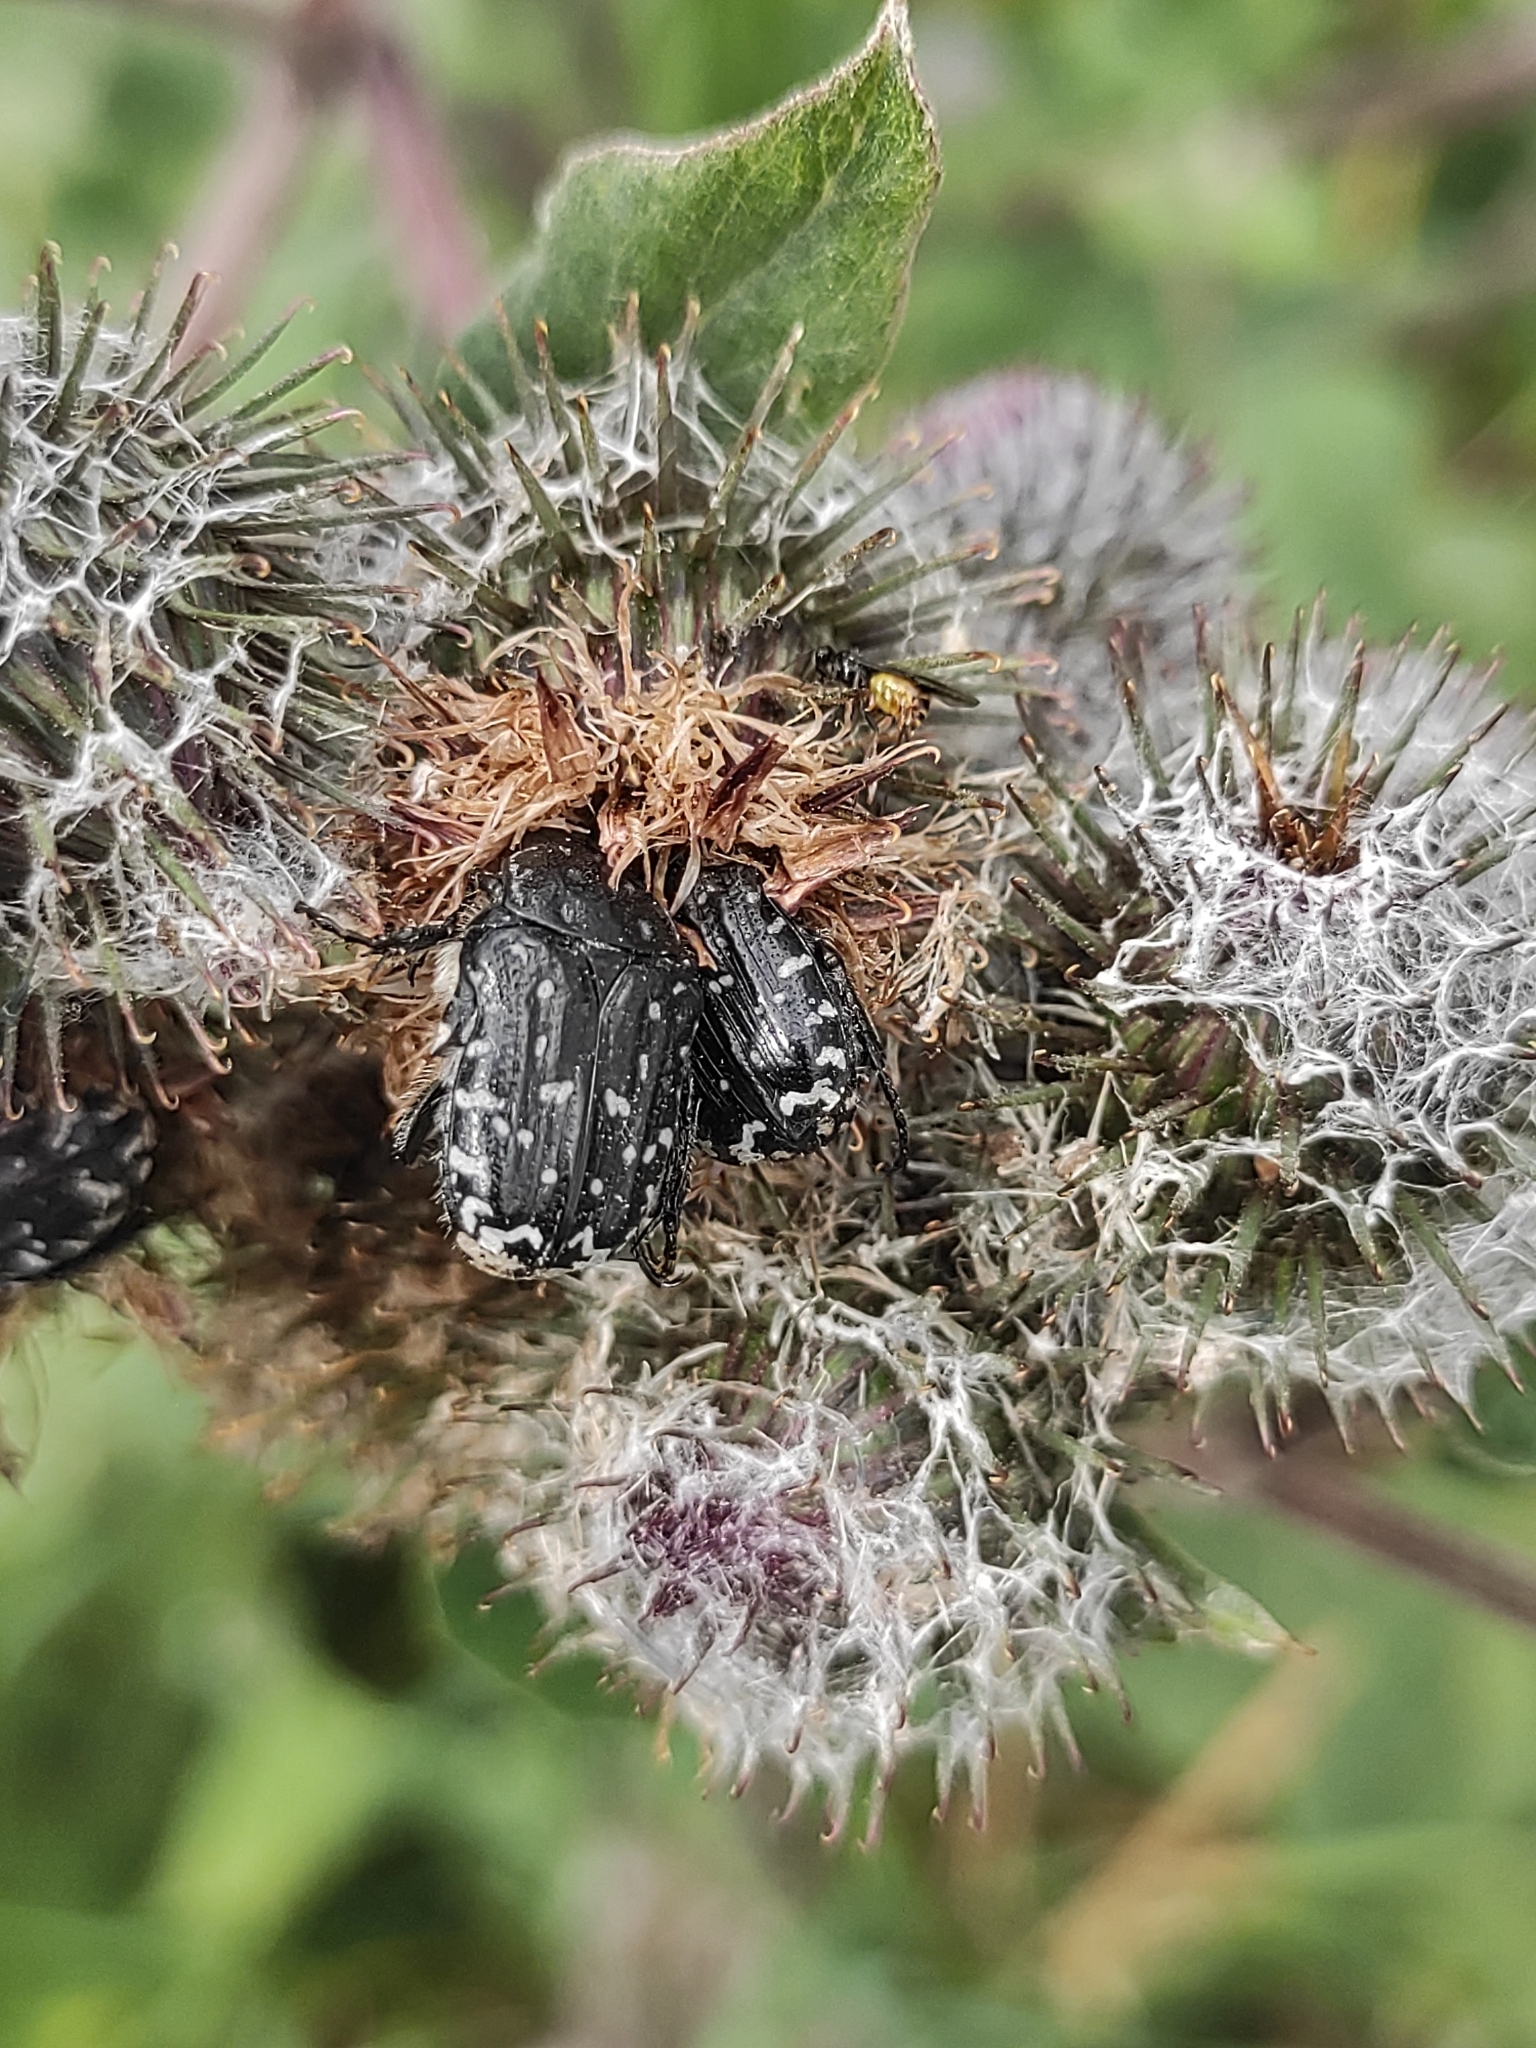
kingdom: Animalia
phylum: Arthropoda
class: Insecta
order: Coleoptera
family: Scarabaeidae
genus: Oxythyrea
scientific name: Oxythyrea funesta
